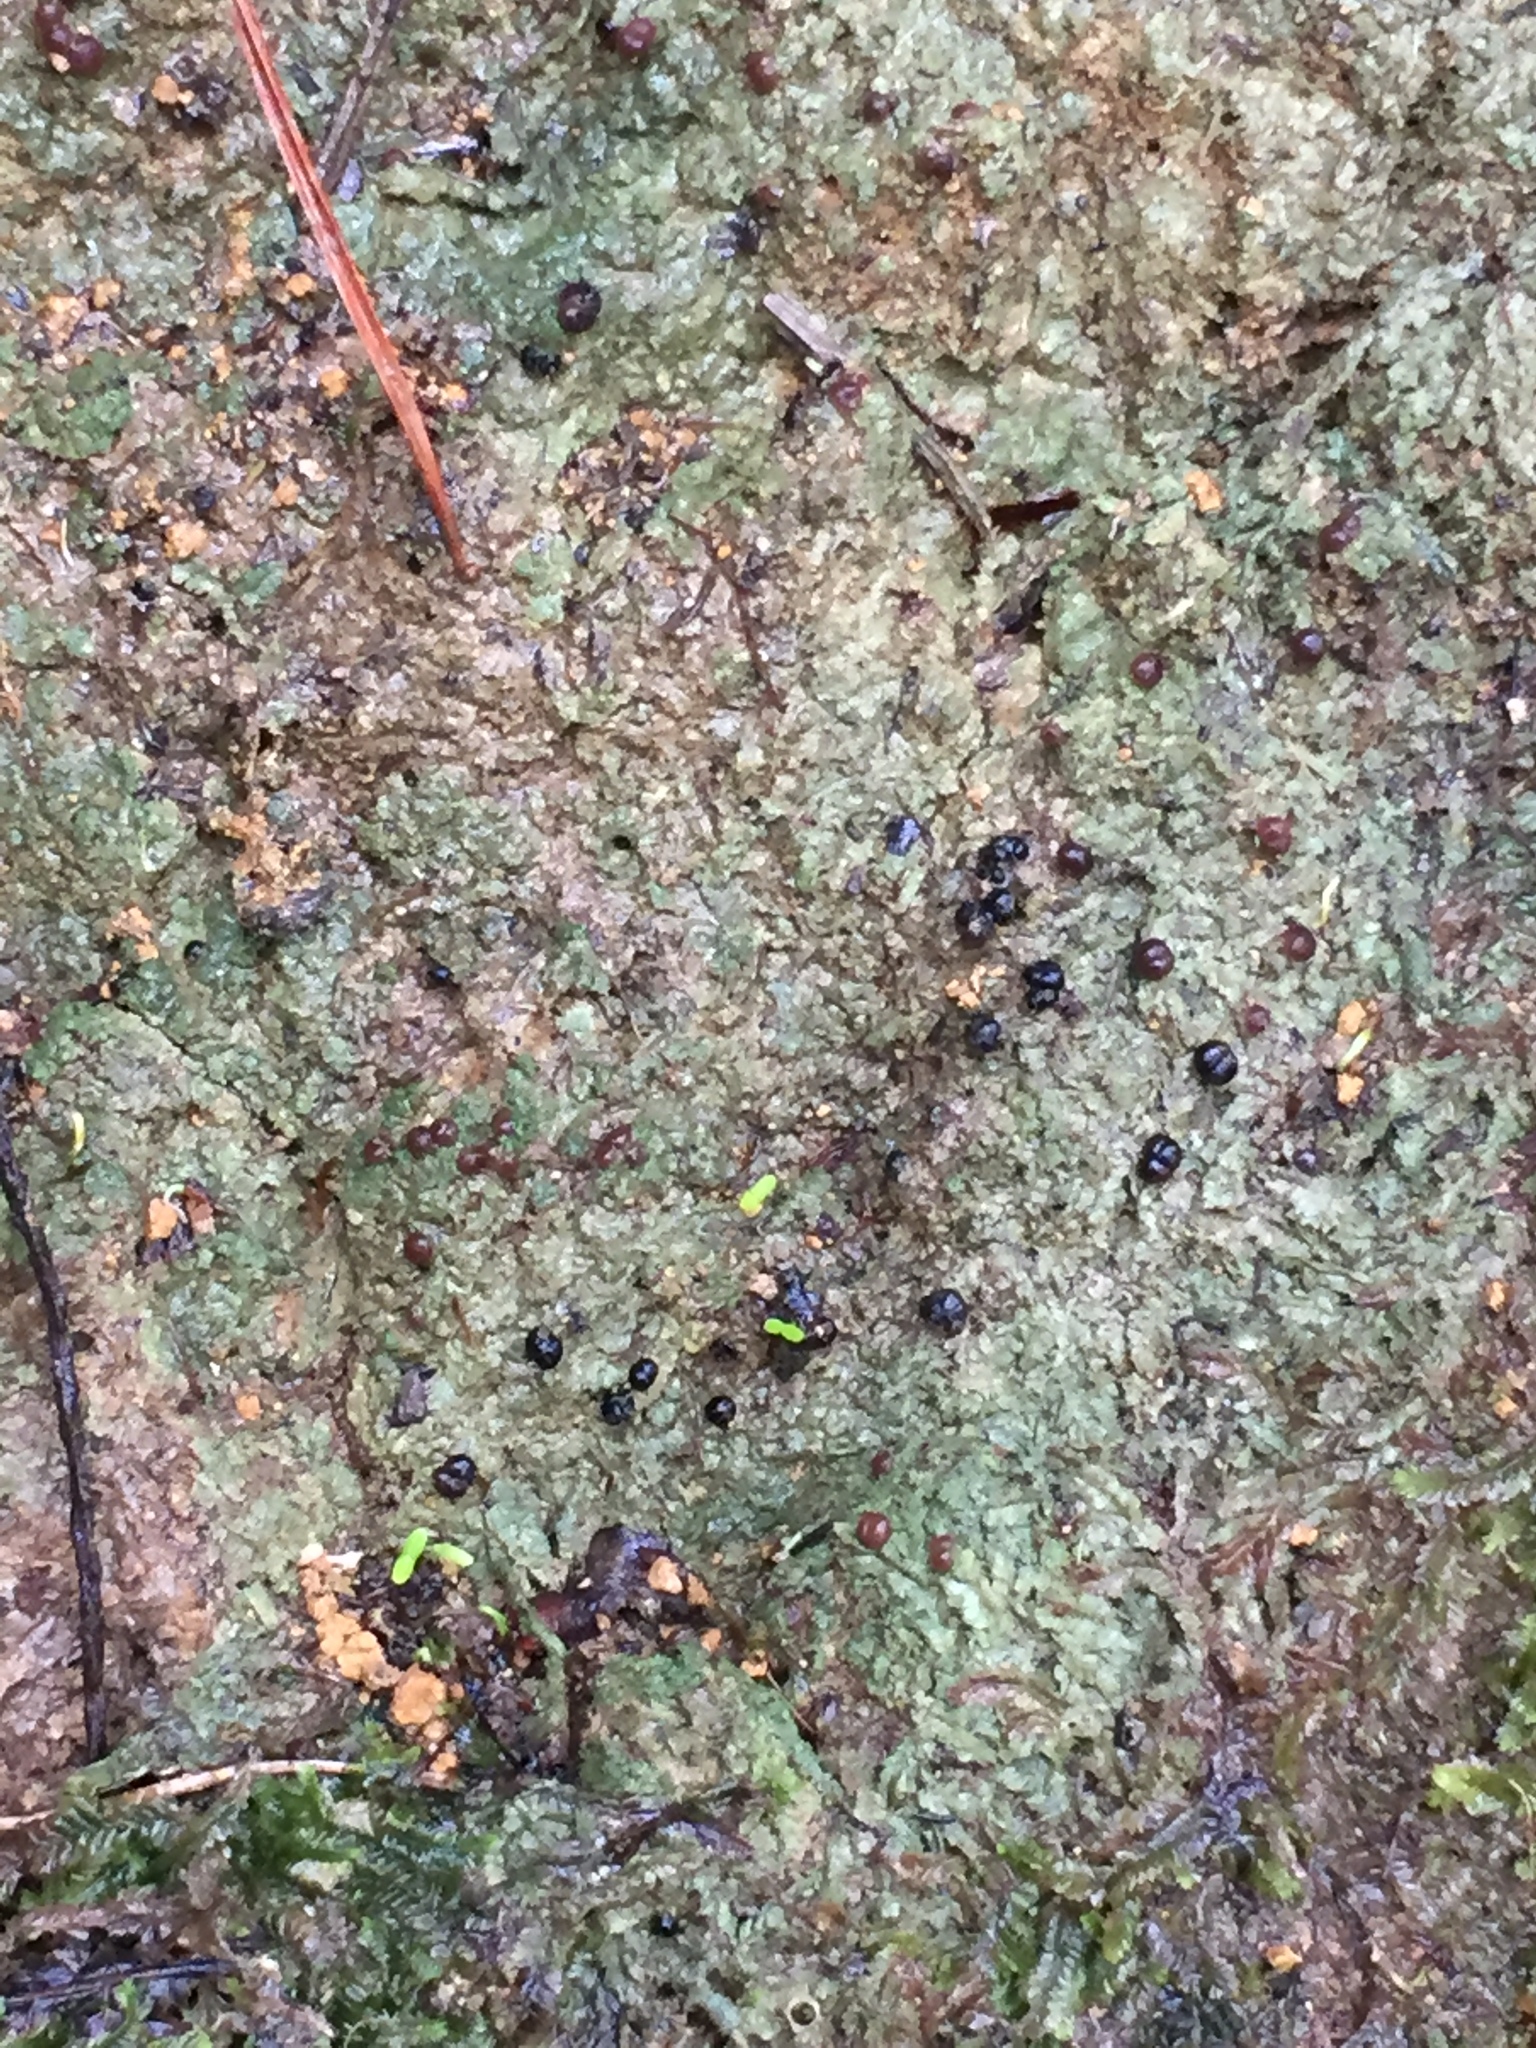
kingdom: Fungi
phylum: Ascomycota
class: Lecanoromycetes
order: Lecanorales
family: Byssolomataceae
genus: Micarea
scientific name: Micarea prasina
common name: Green dot lichen
